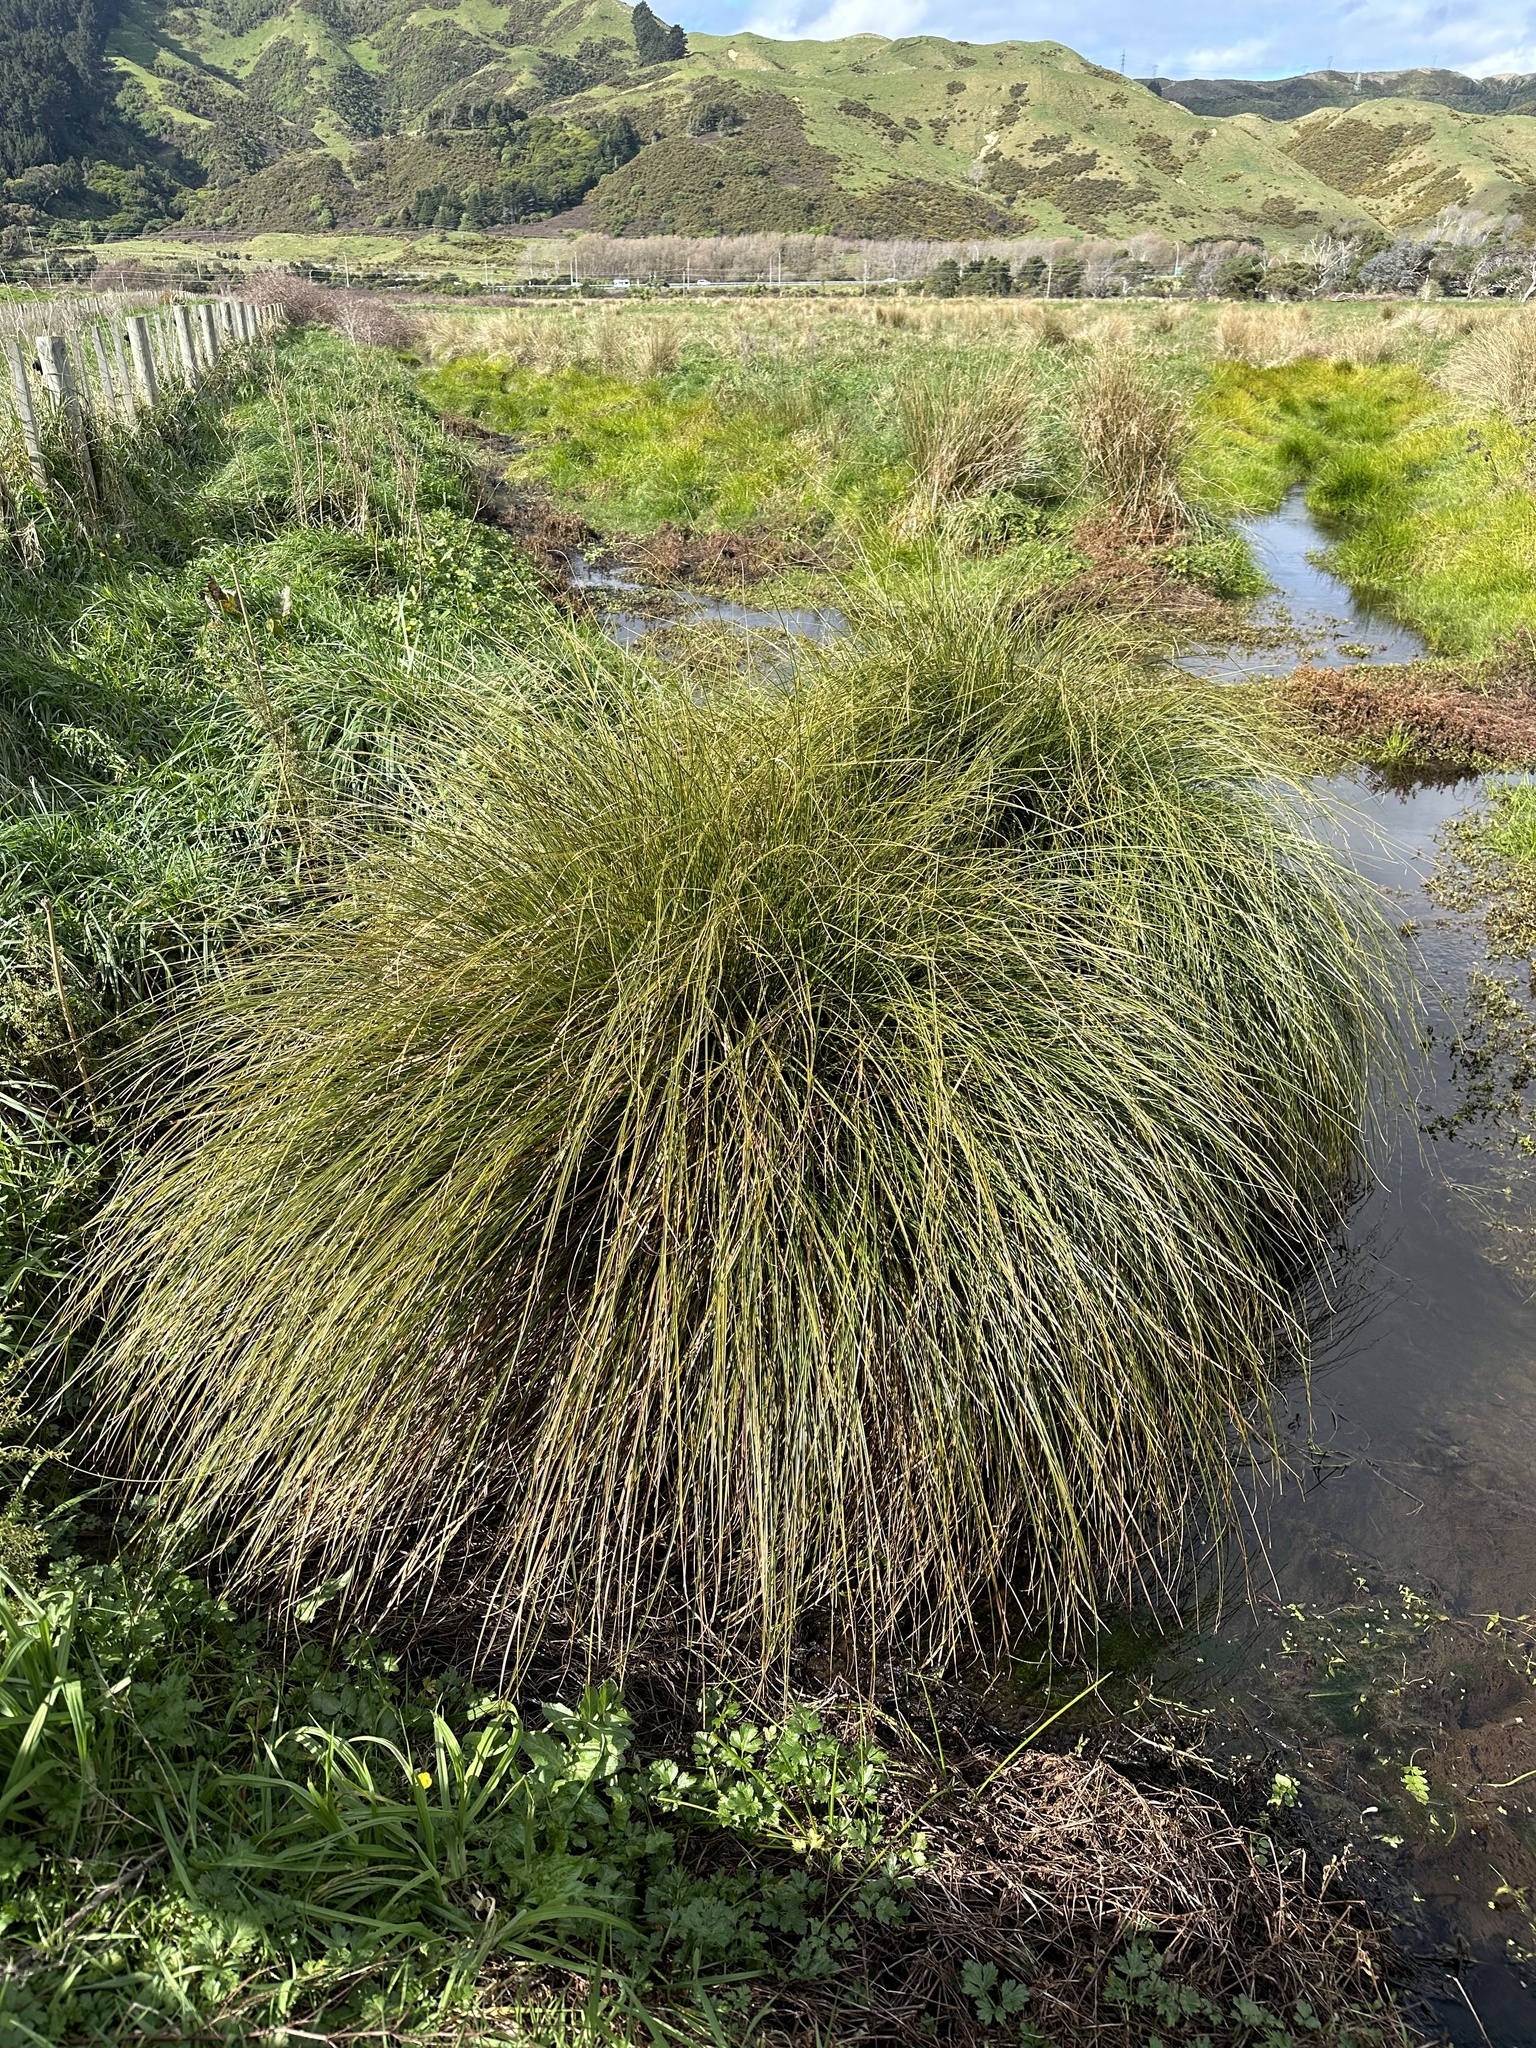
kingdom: Plantae
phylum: Tracheophyta
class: Liliopsida
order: Poales
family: Cyperaceae
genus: Carex
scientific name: Carex secta
